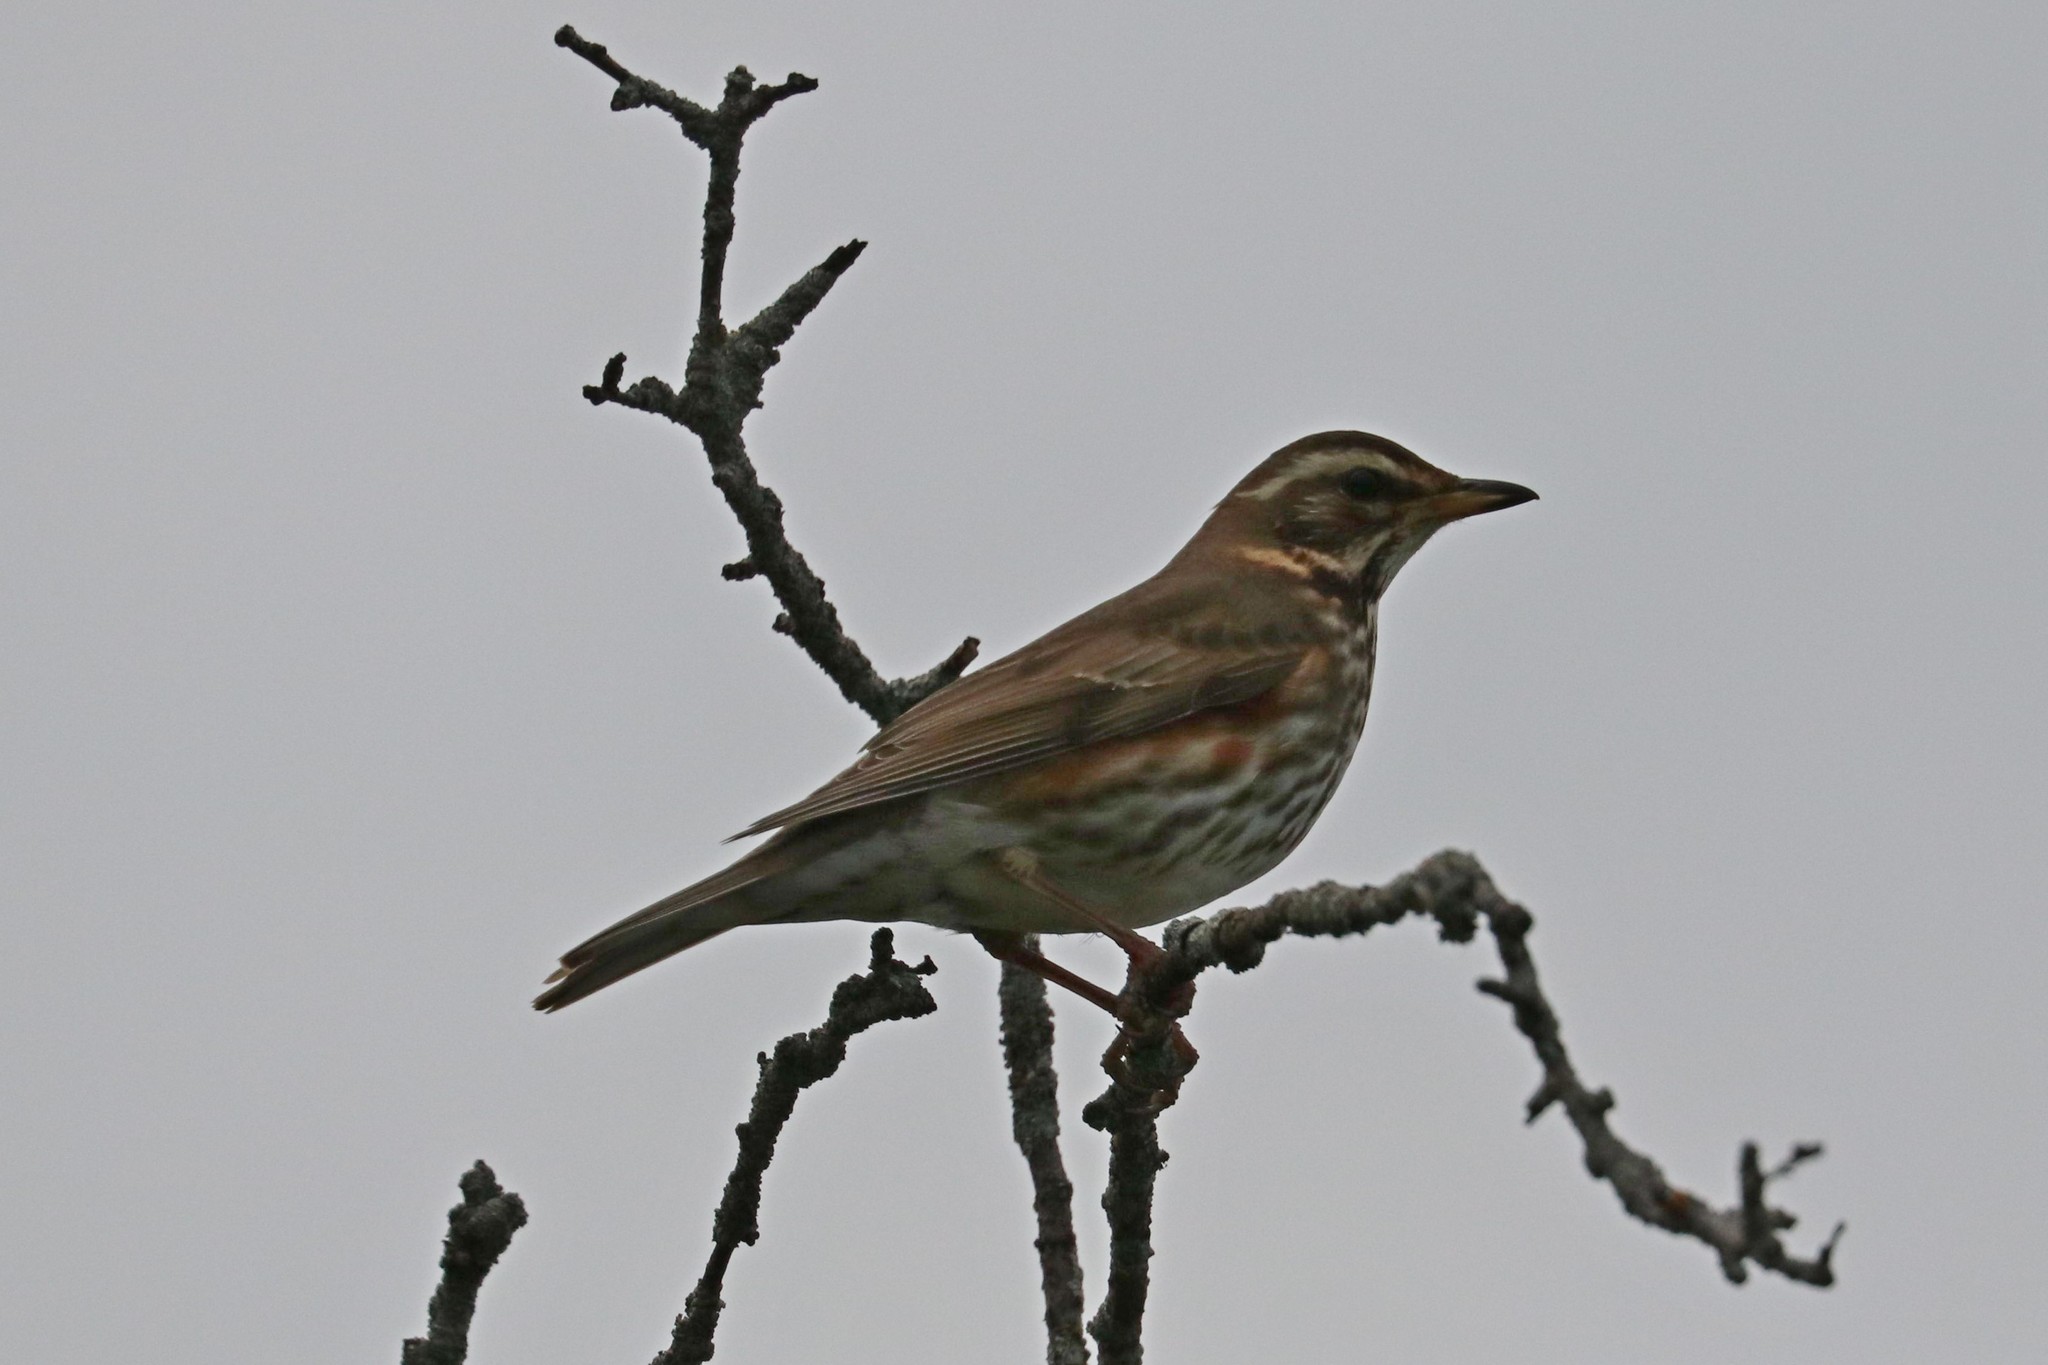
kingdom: Animalia
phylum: Chordata
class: Aves
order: Passeriformes
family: Turdidae
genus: Turdus
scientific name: Turdus iliacus
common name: Redwing
